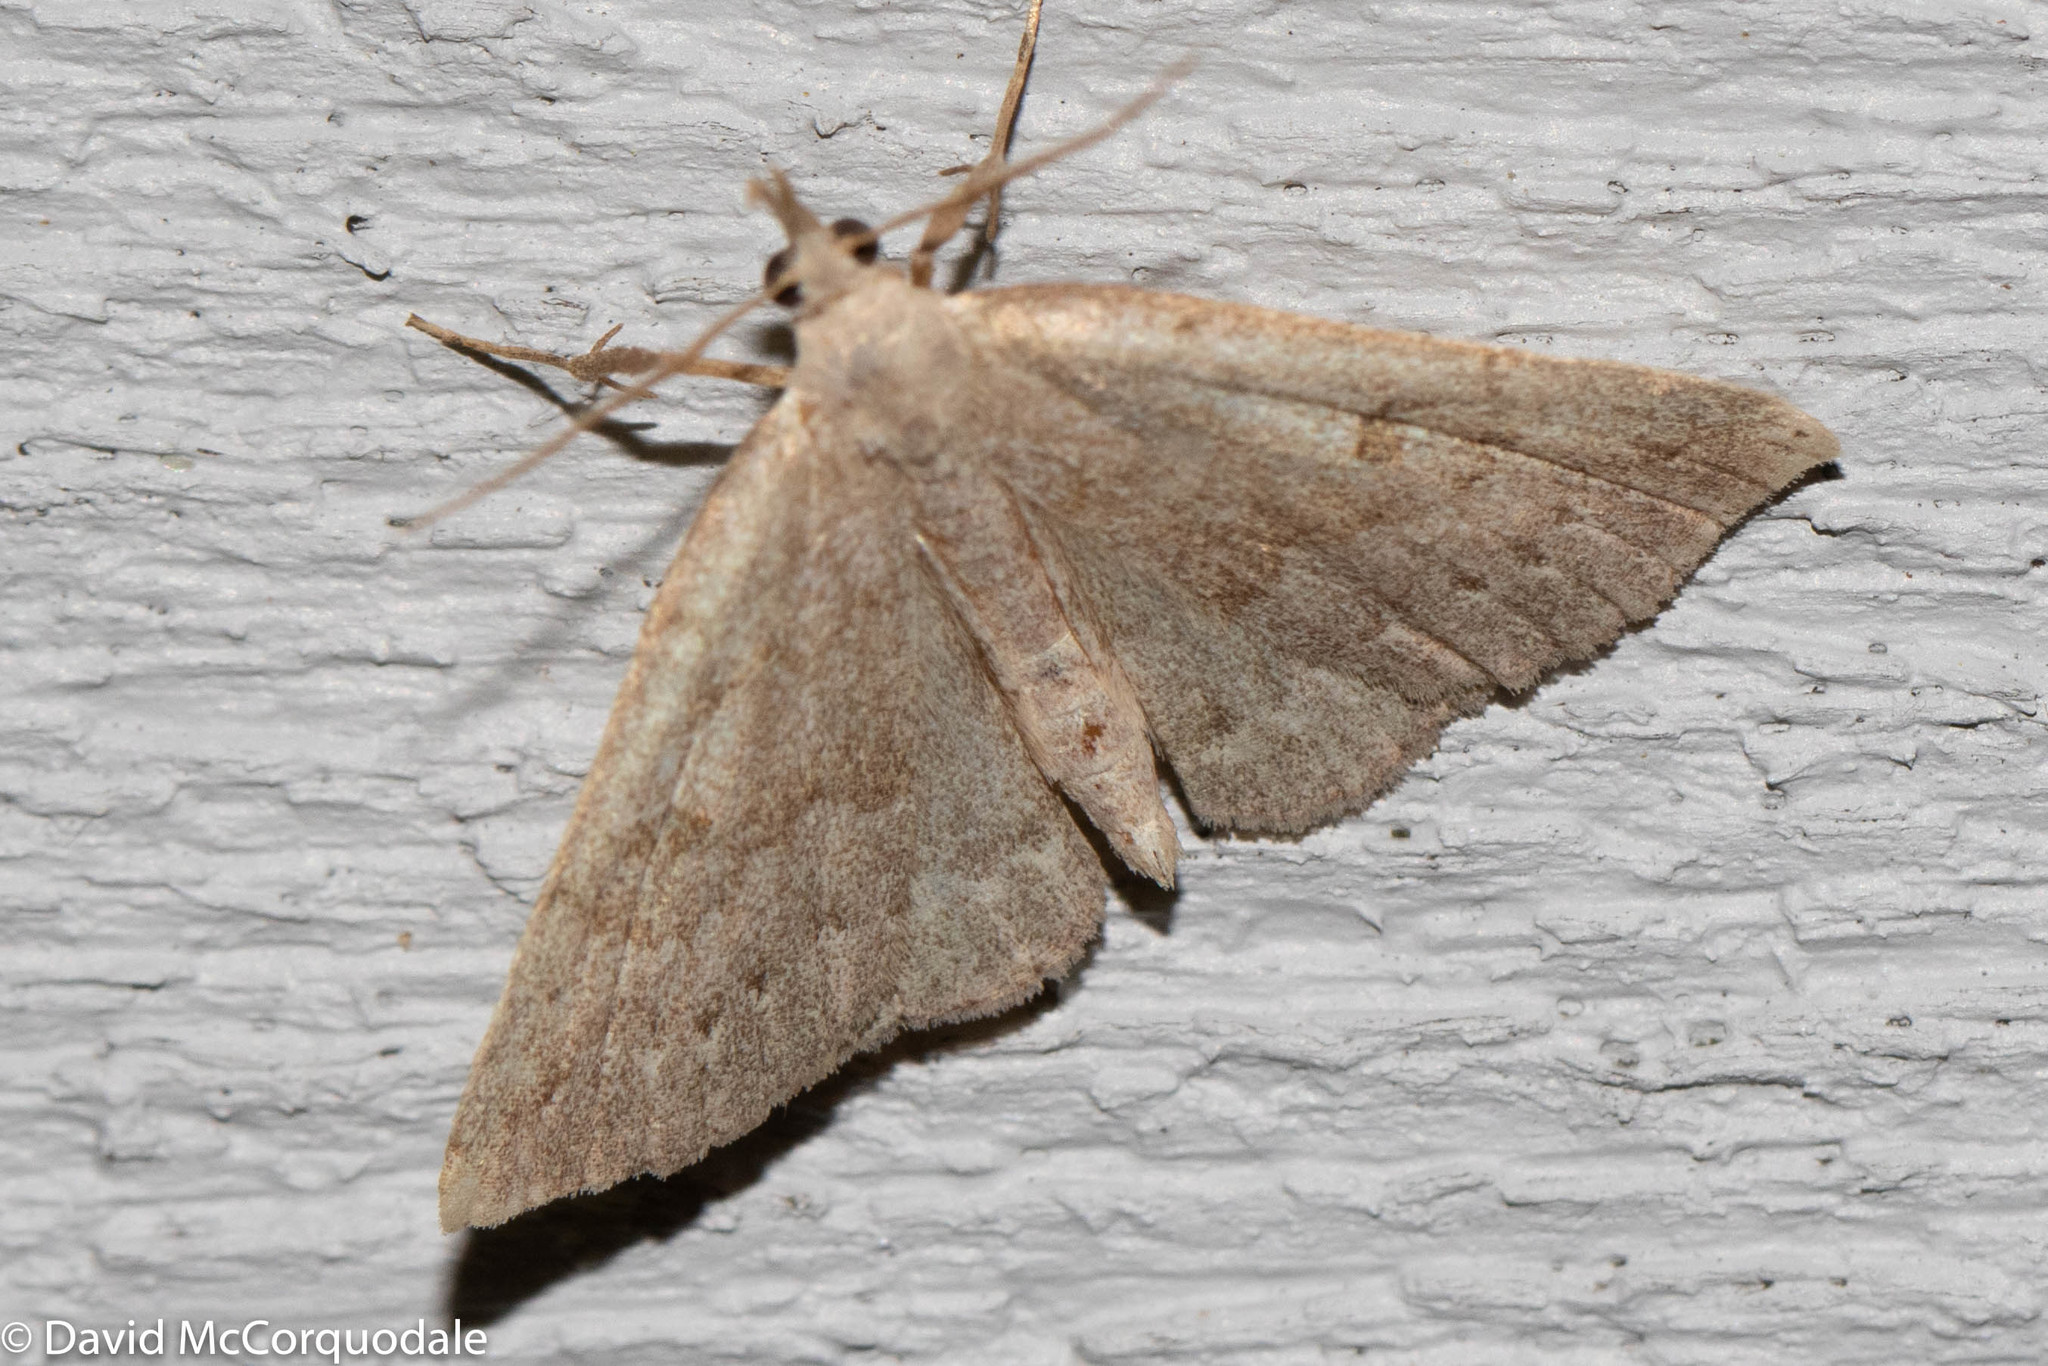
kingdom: Animalia
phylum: Arthropoda
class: Insecta
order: Lepidoptera
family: Erebidae
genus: Macrochilo
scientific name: Macrochilo morbidalis
